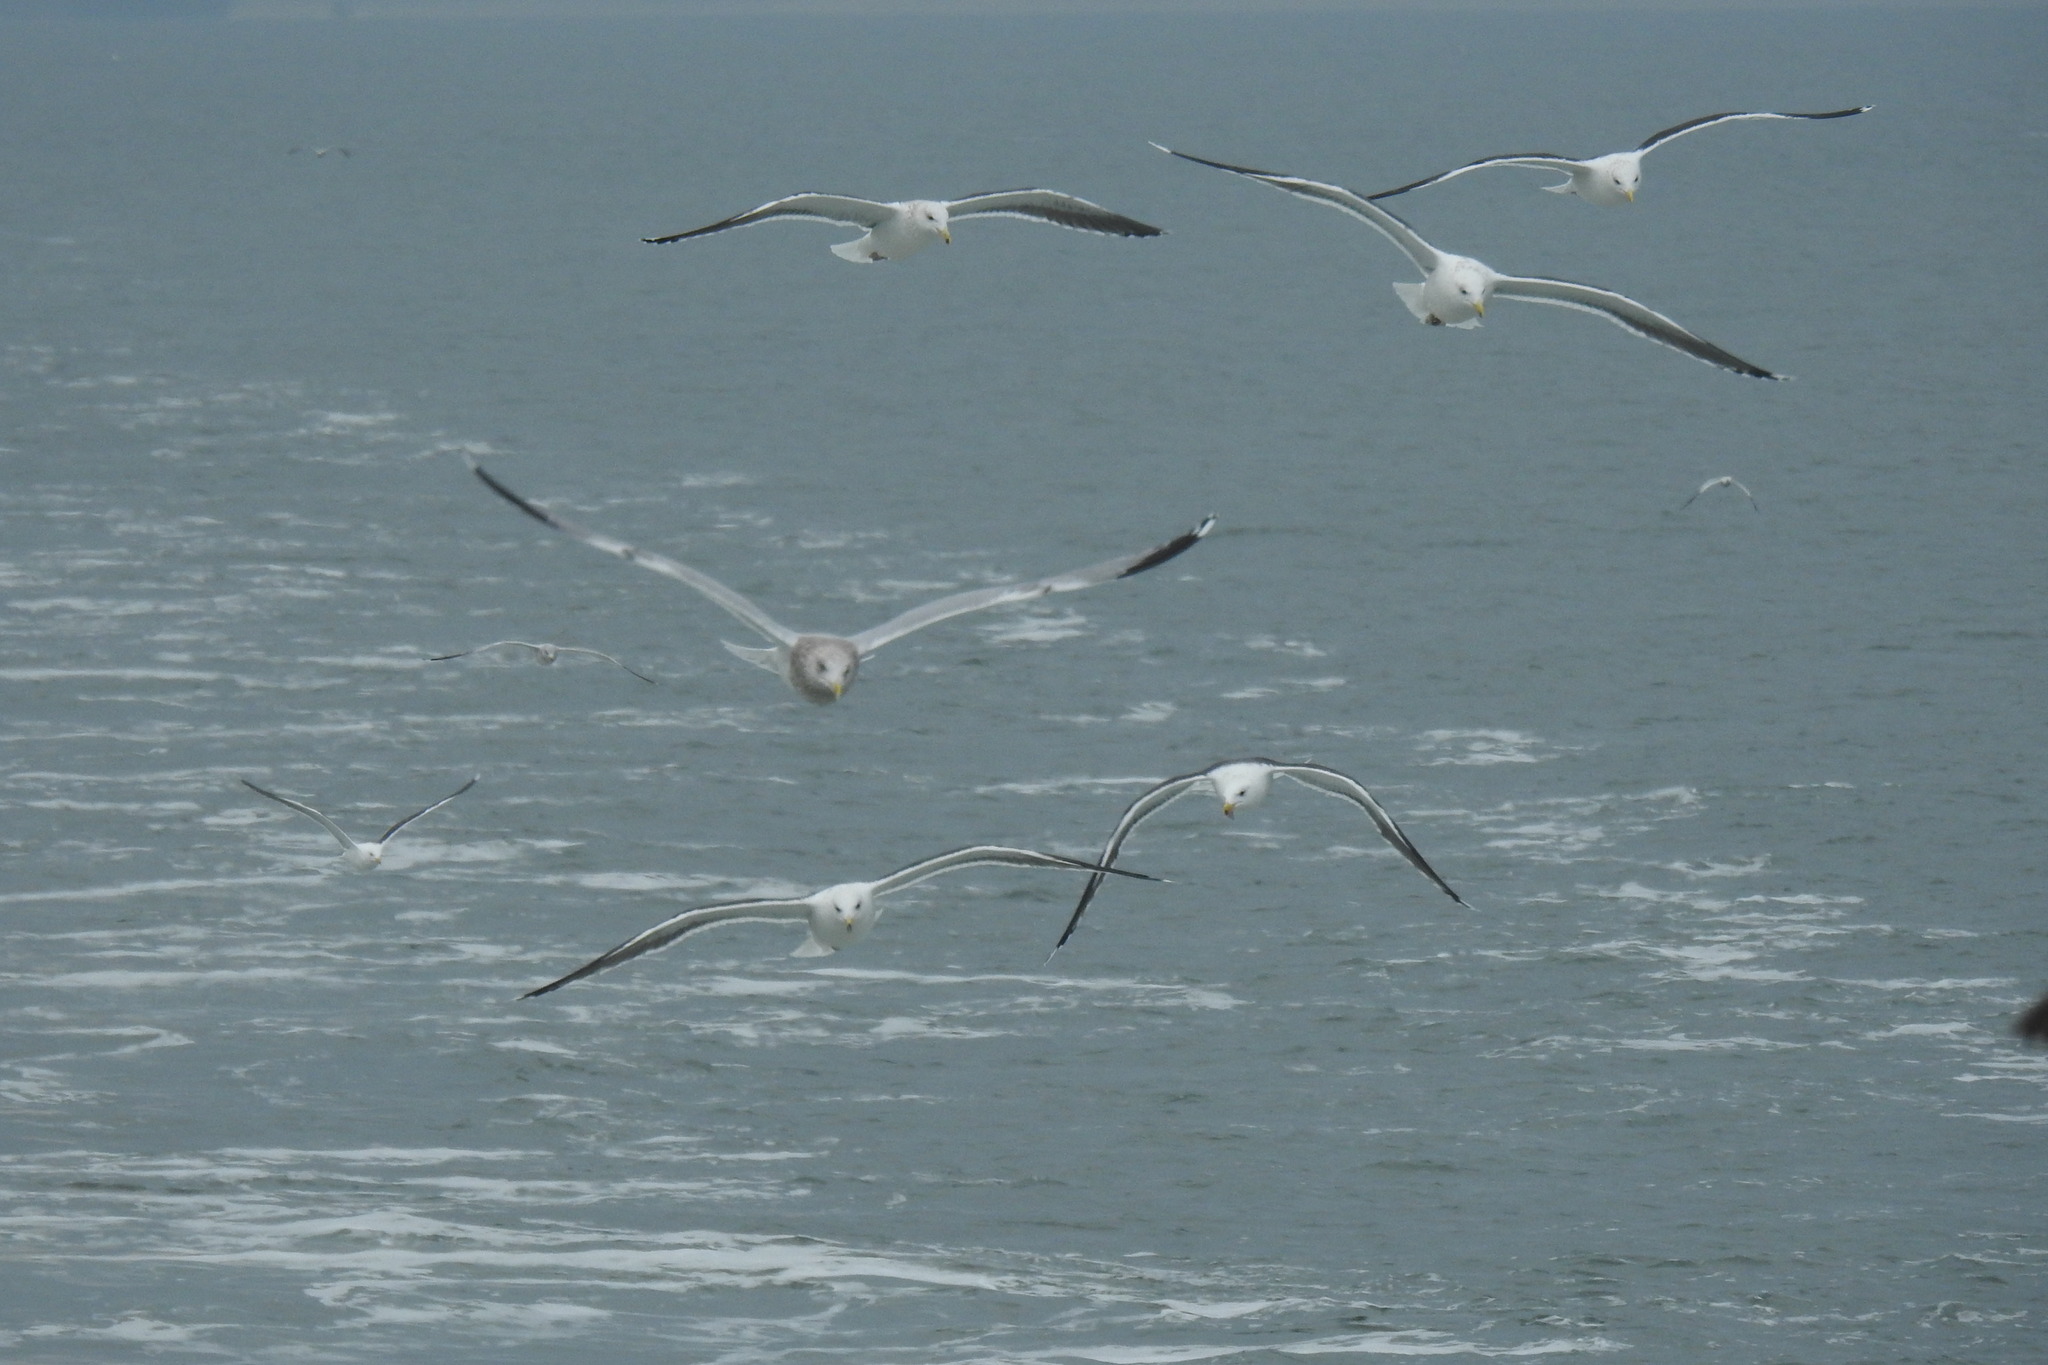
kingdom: Animalia
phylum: Chordata
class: Aves
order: Charadriiformes
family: Laridae
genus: Larus
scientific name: Larus marinus
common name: Great black-backed gull
